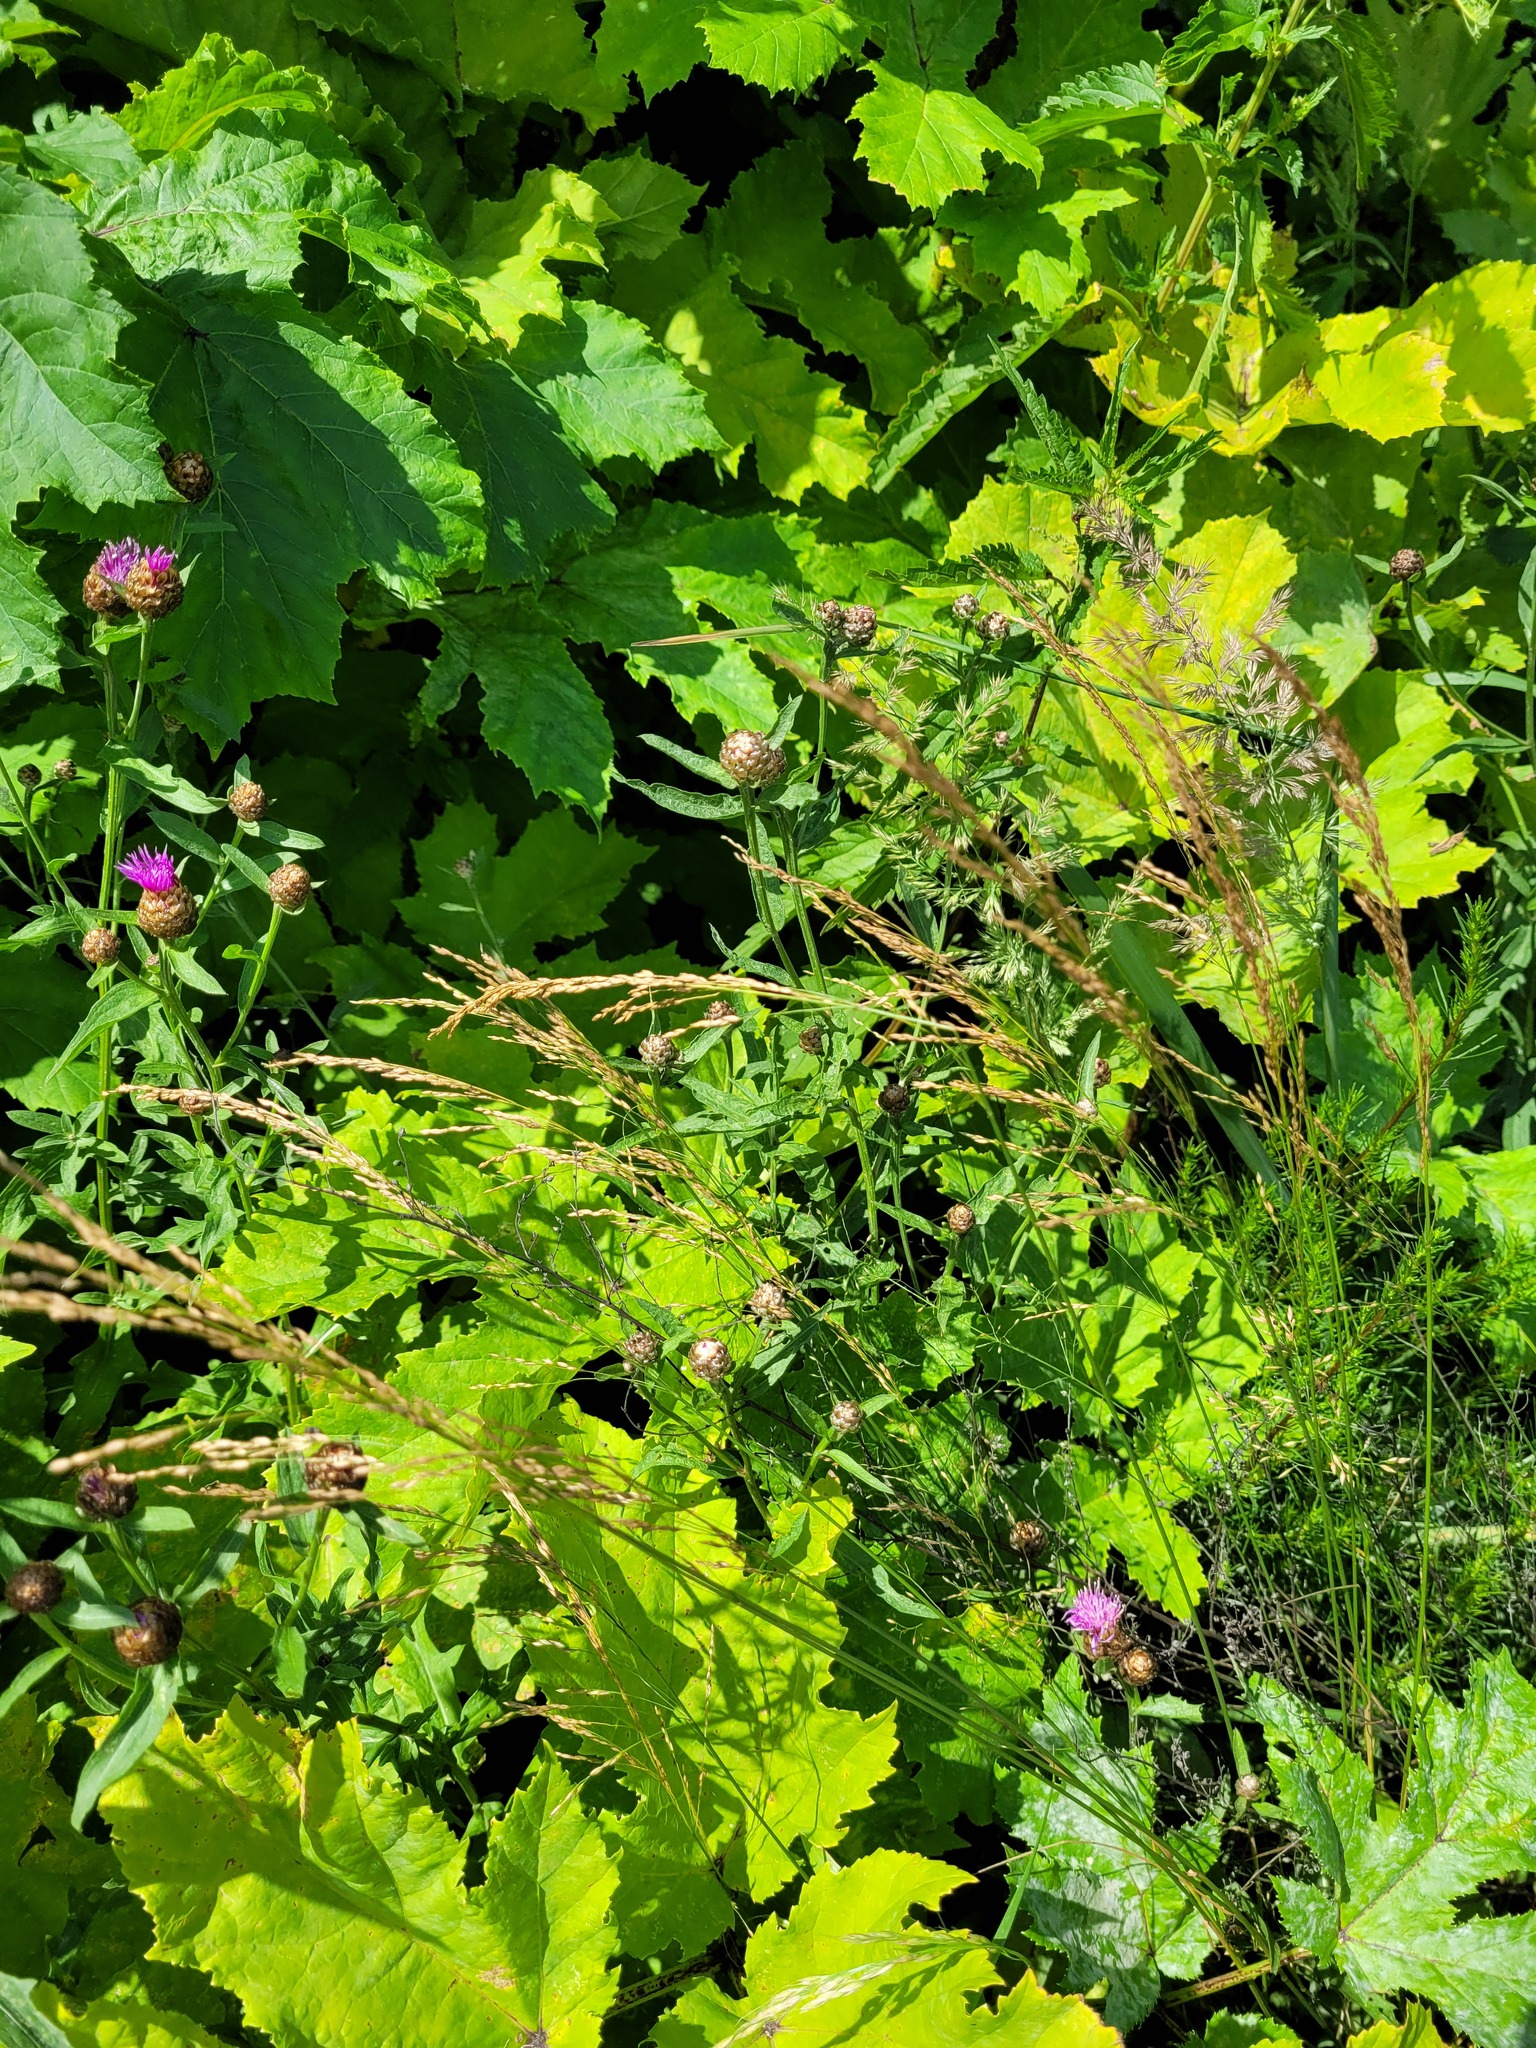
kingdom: Plantae
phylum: Tracheophyta
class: Liliopsida
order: Poales
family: Poaceae
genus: Poa
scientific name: Poa palustris
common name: Swamp meadow-grass
